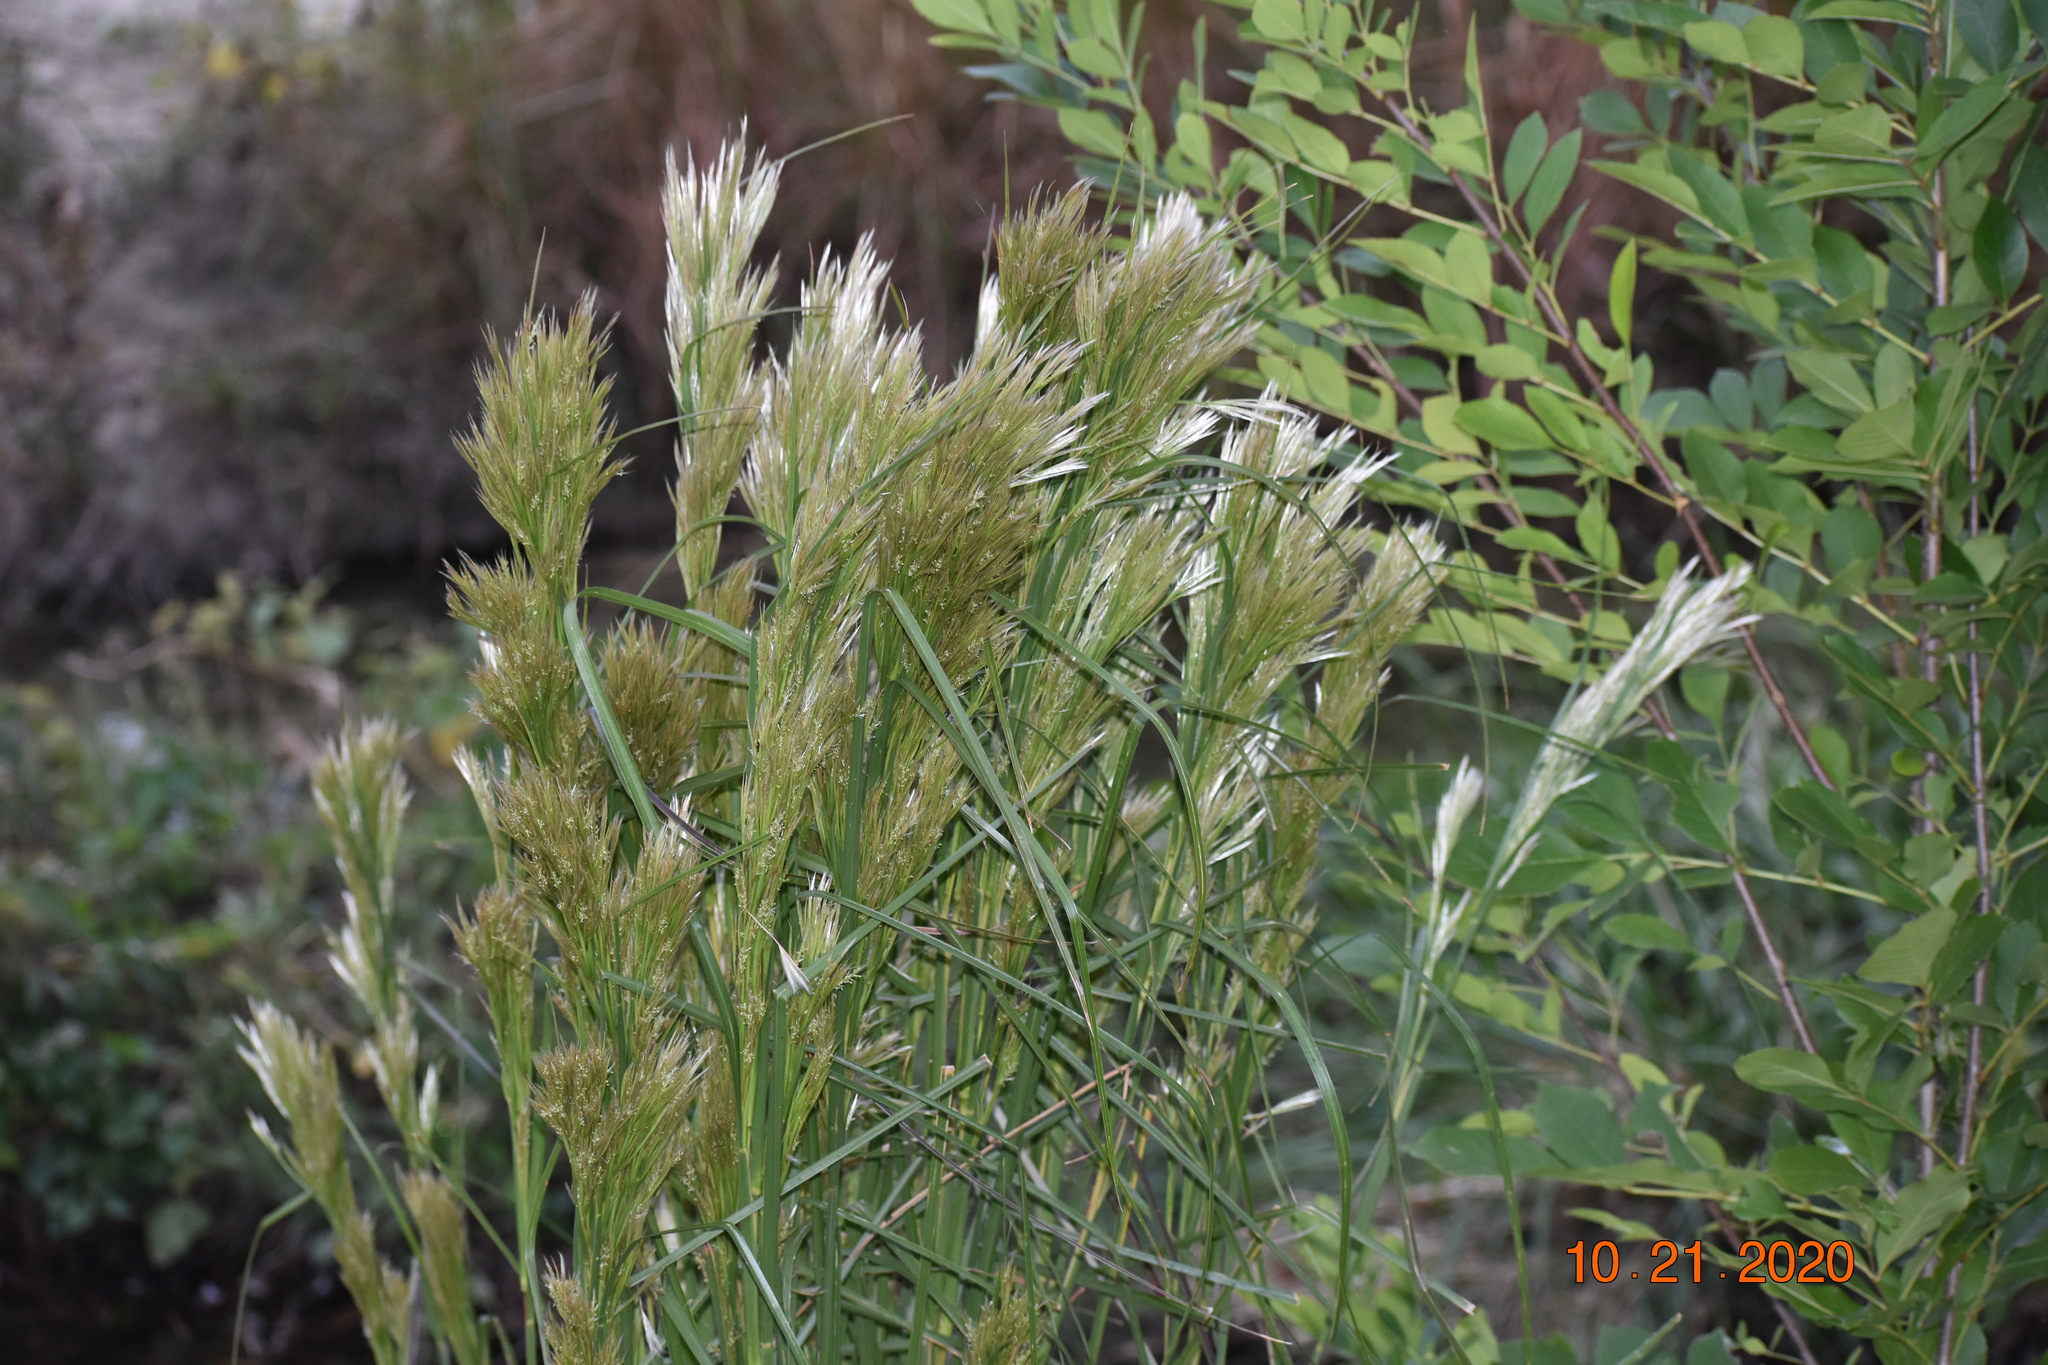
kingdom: Plantae
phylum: Tracheophyta
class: Liliopsida
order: Poales
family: Poaceae
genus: Andropogon
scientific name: Andropogon tenuispatheus
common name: Bushy bluestem
